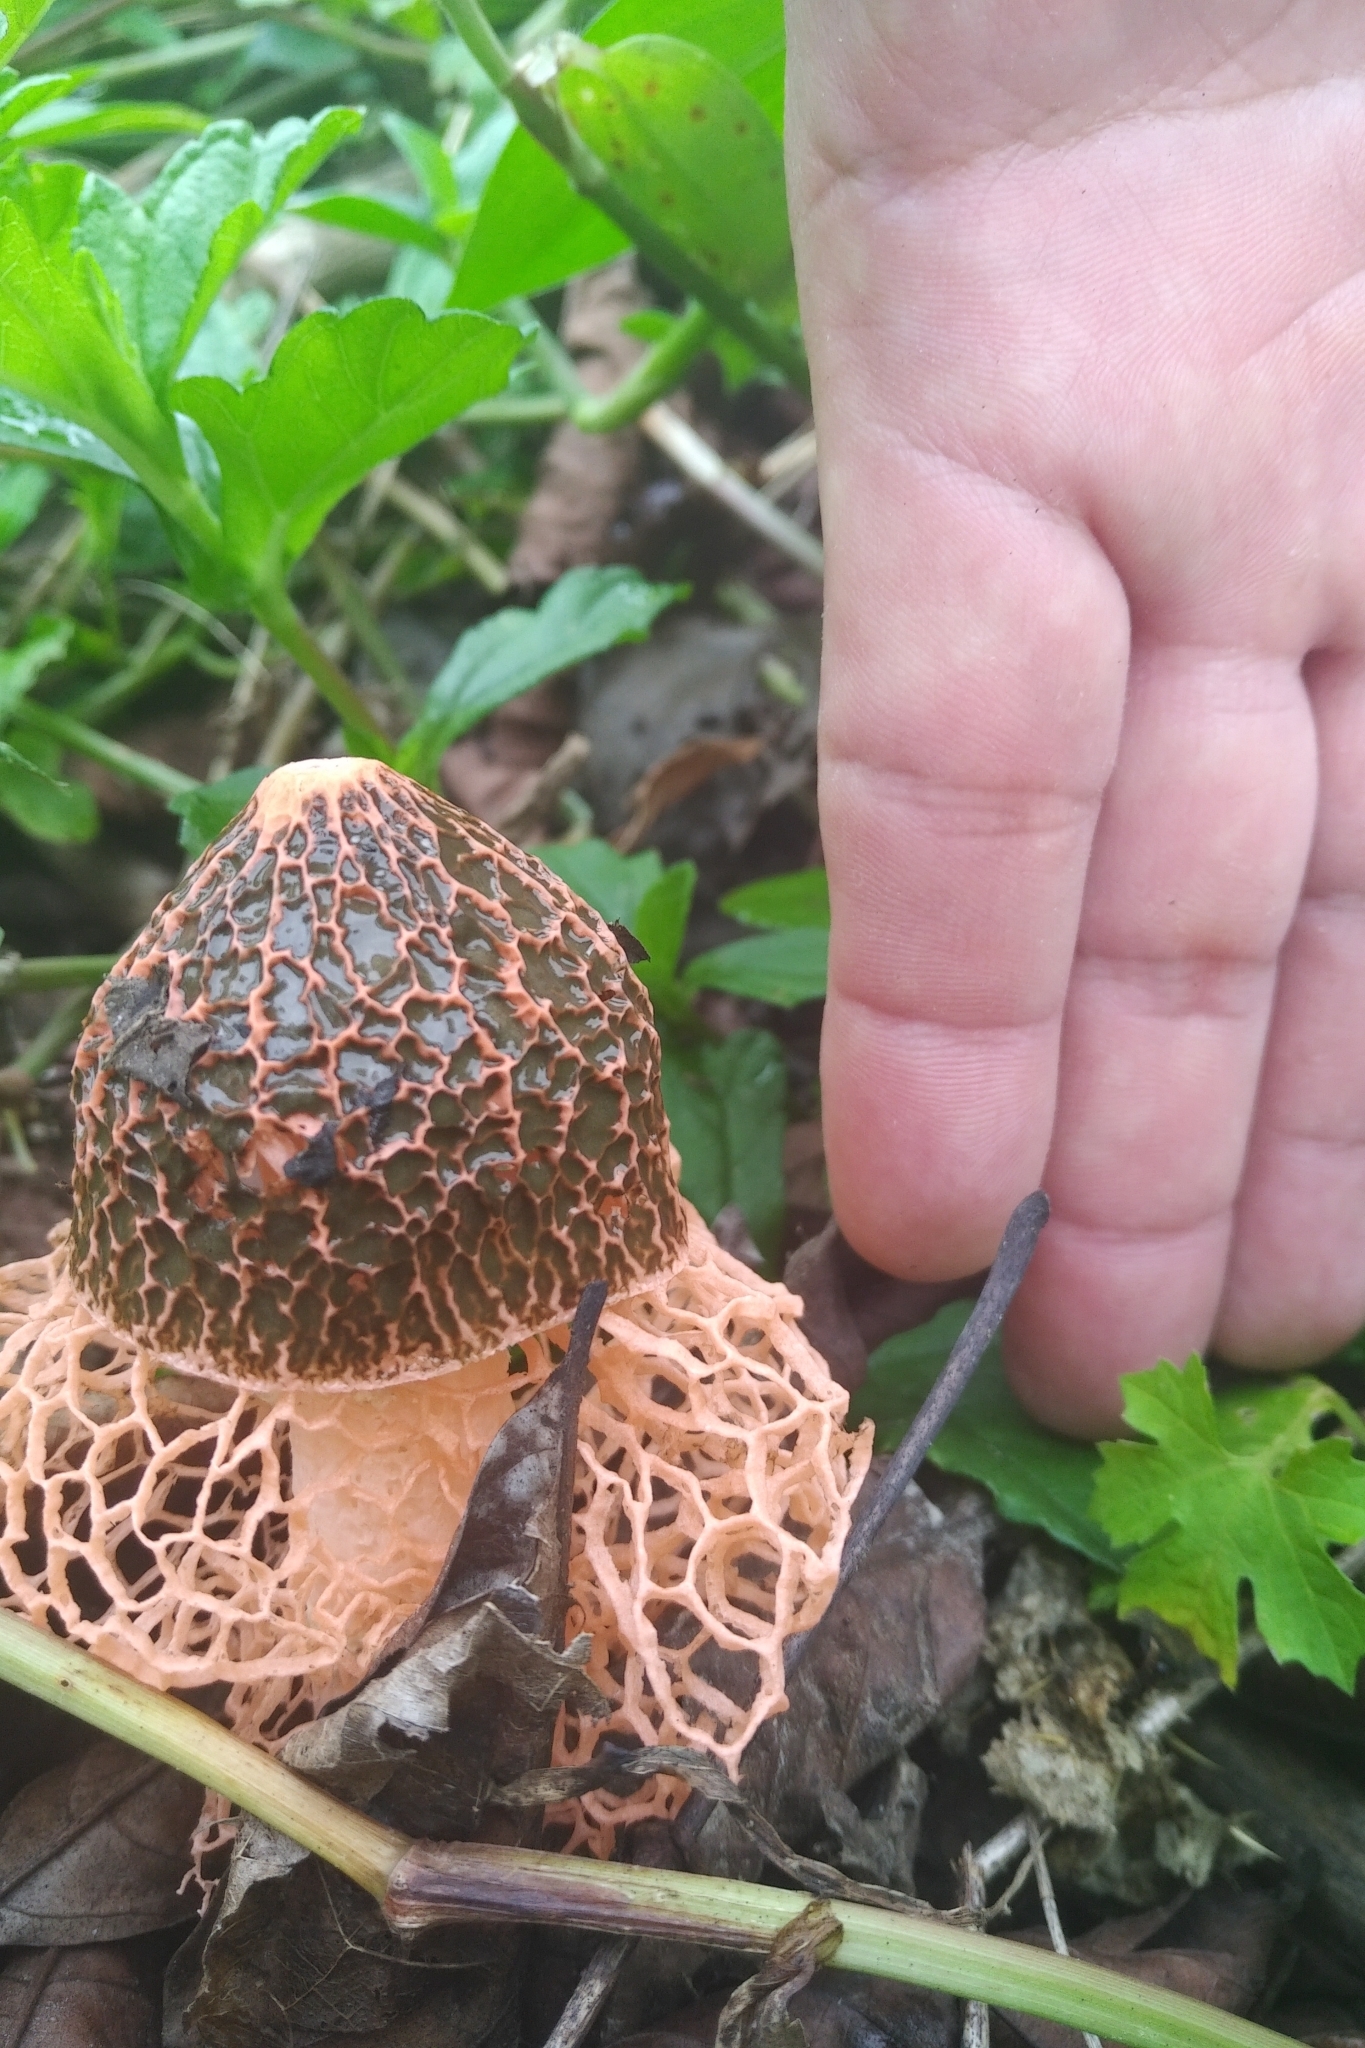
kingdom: Fungi
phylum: Basidiomycota
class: Agaricomycetes
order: Phallales
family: Phallaceae
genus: Phallus
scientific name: Phallus haitangensis
